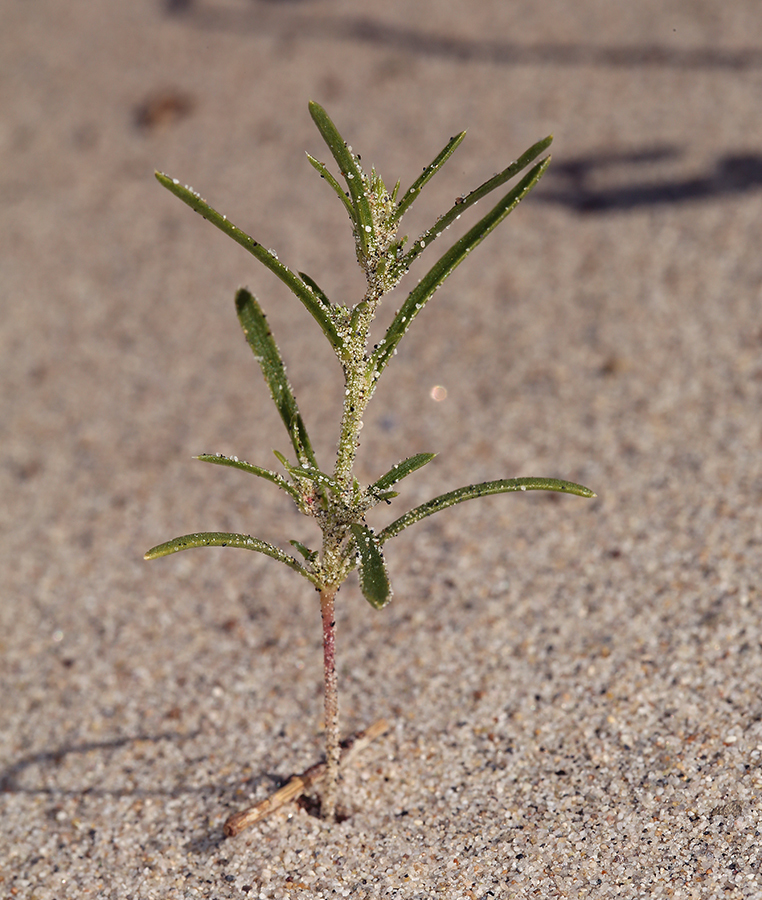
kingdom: Plantae
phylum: Tracheophyta
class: Magnoliopsida
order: Caryophyllales
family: Amaranthaceae
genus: Corispermum
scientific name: Corispermum americanum
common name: American bugseed
